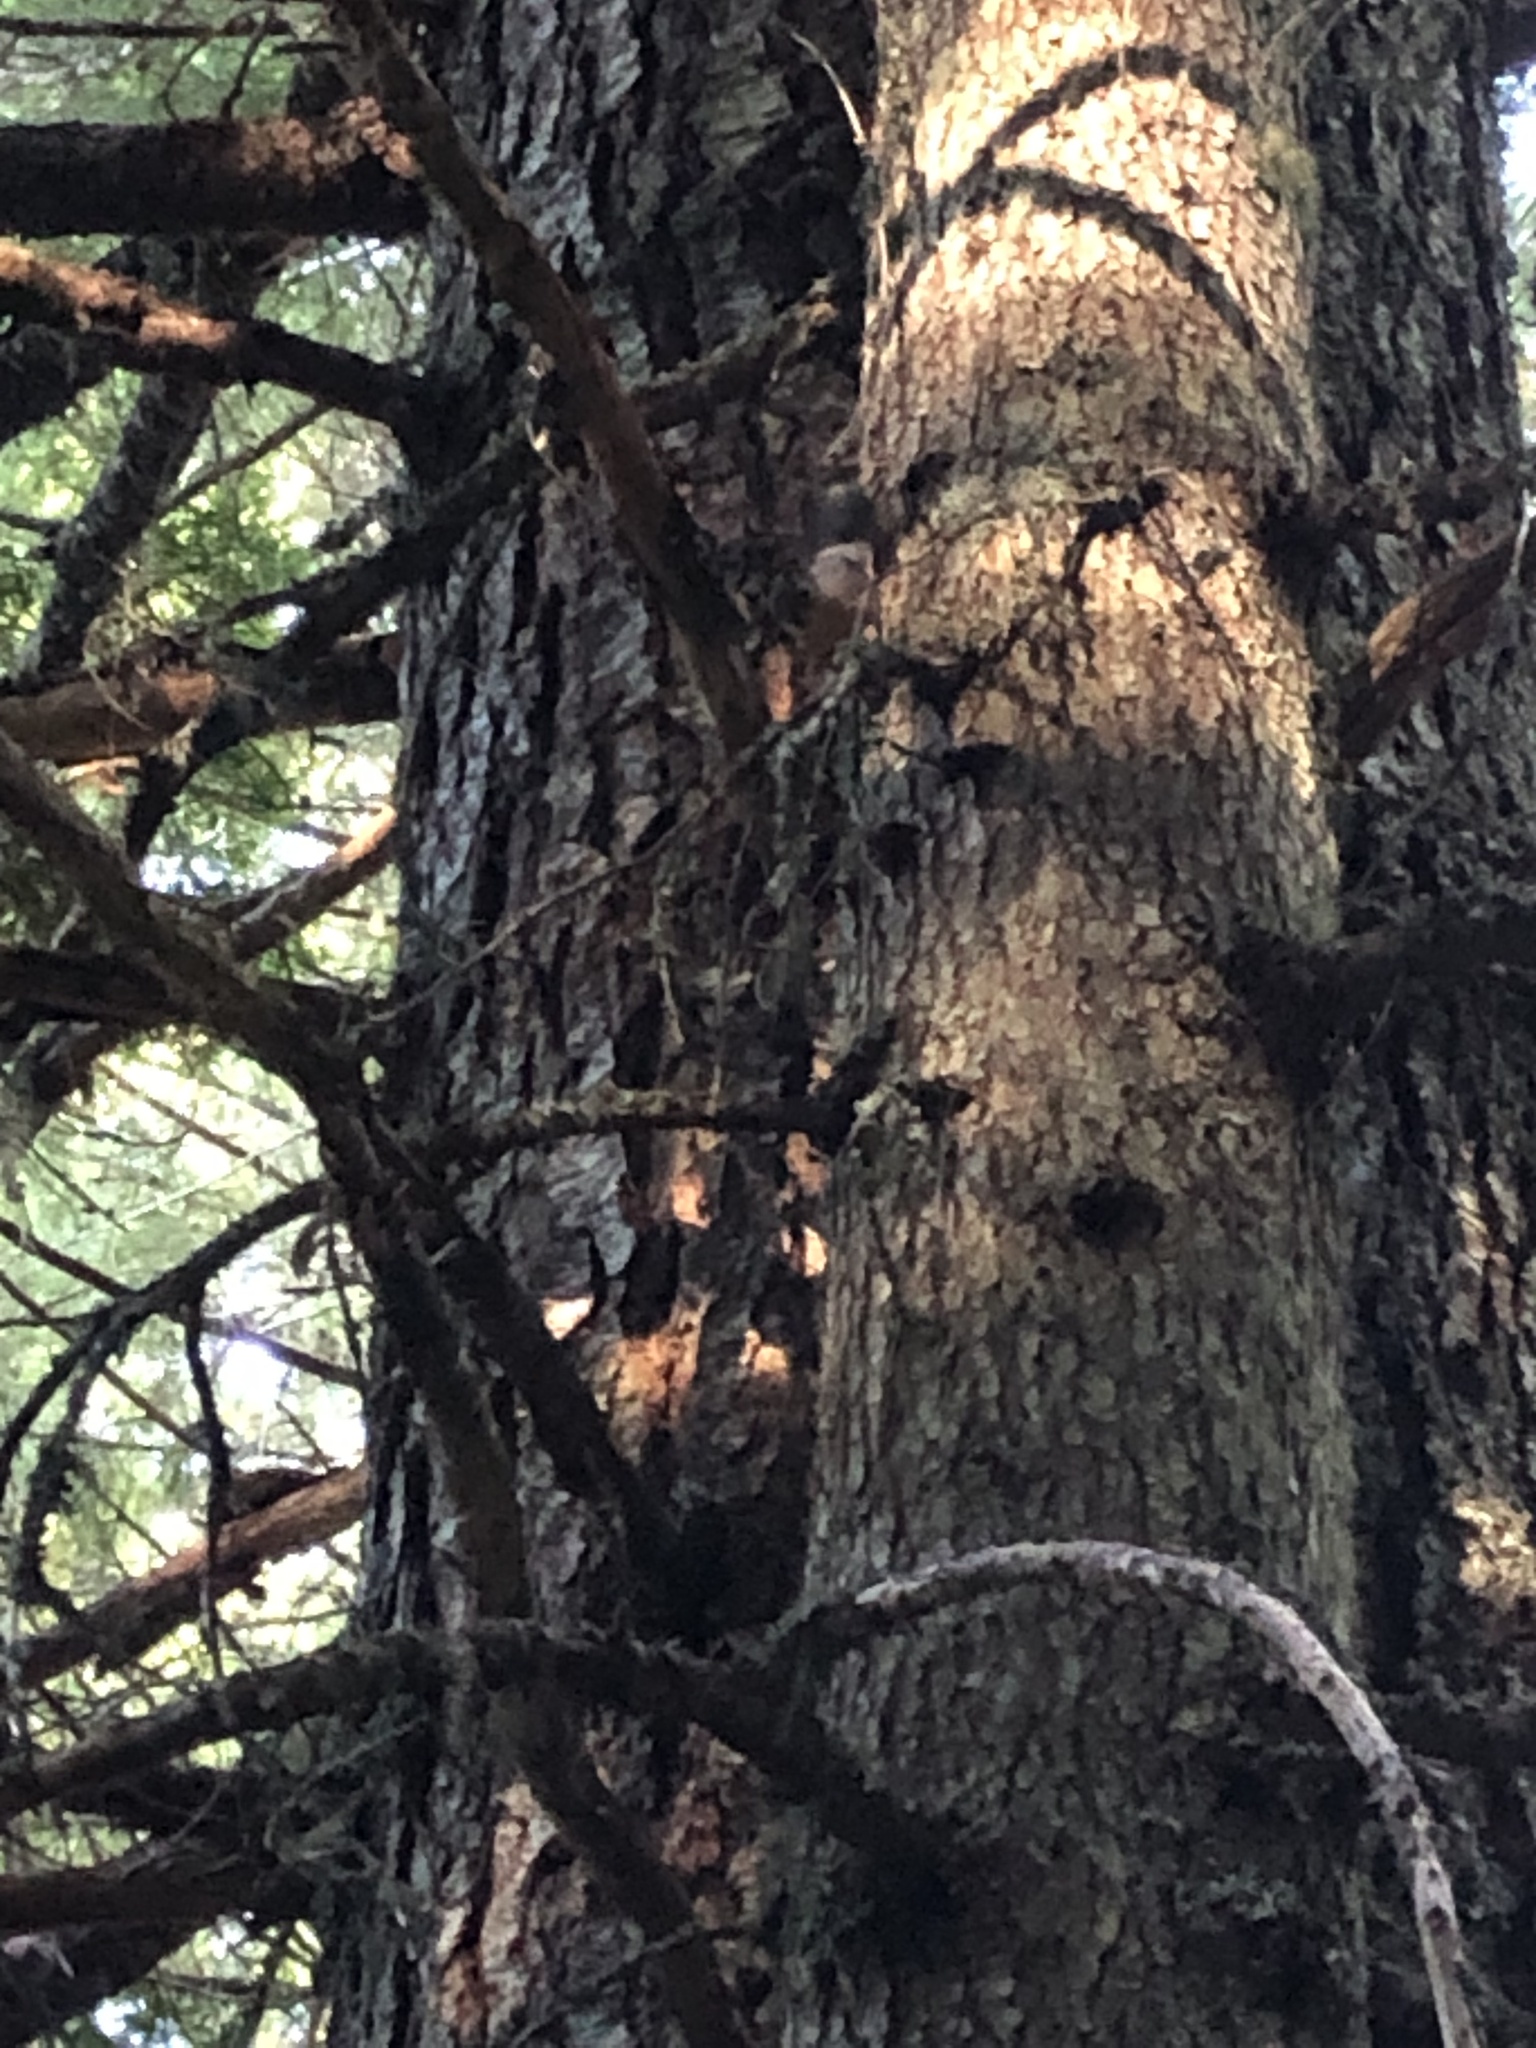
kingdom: Animalia
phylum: Chordata
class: Mammalia
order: Rodentia
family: Sciuridae
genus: Tamiasciurus
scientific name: Tamiasciurus douglasii
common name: Douglas's squirrel
